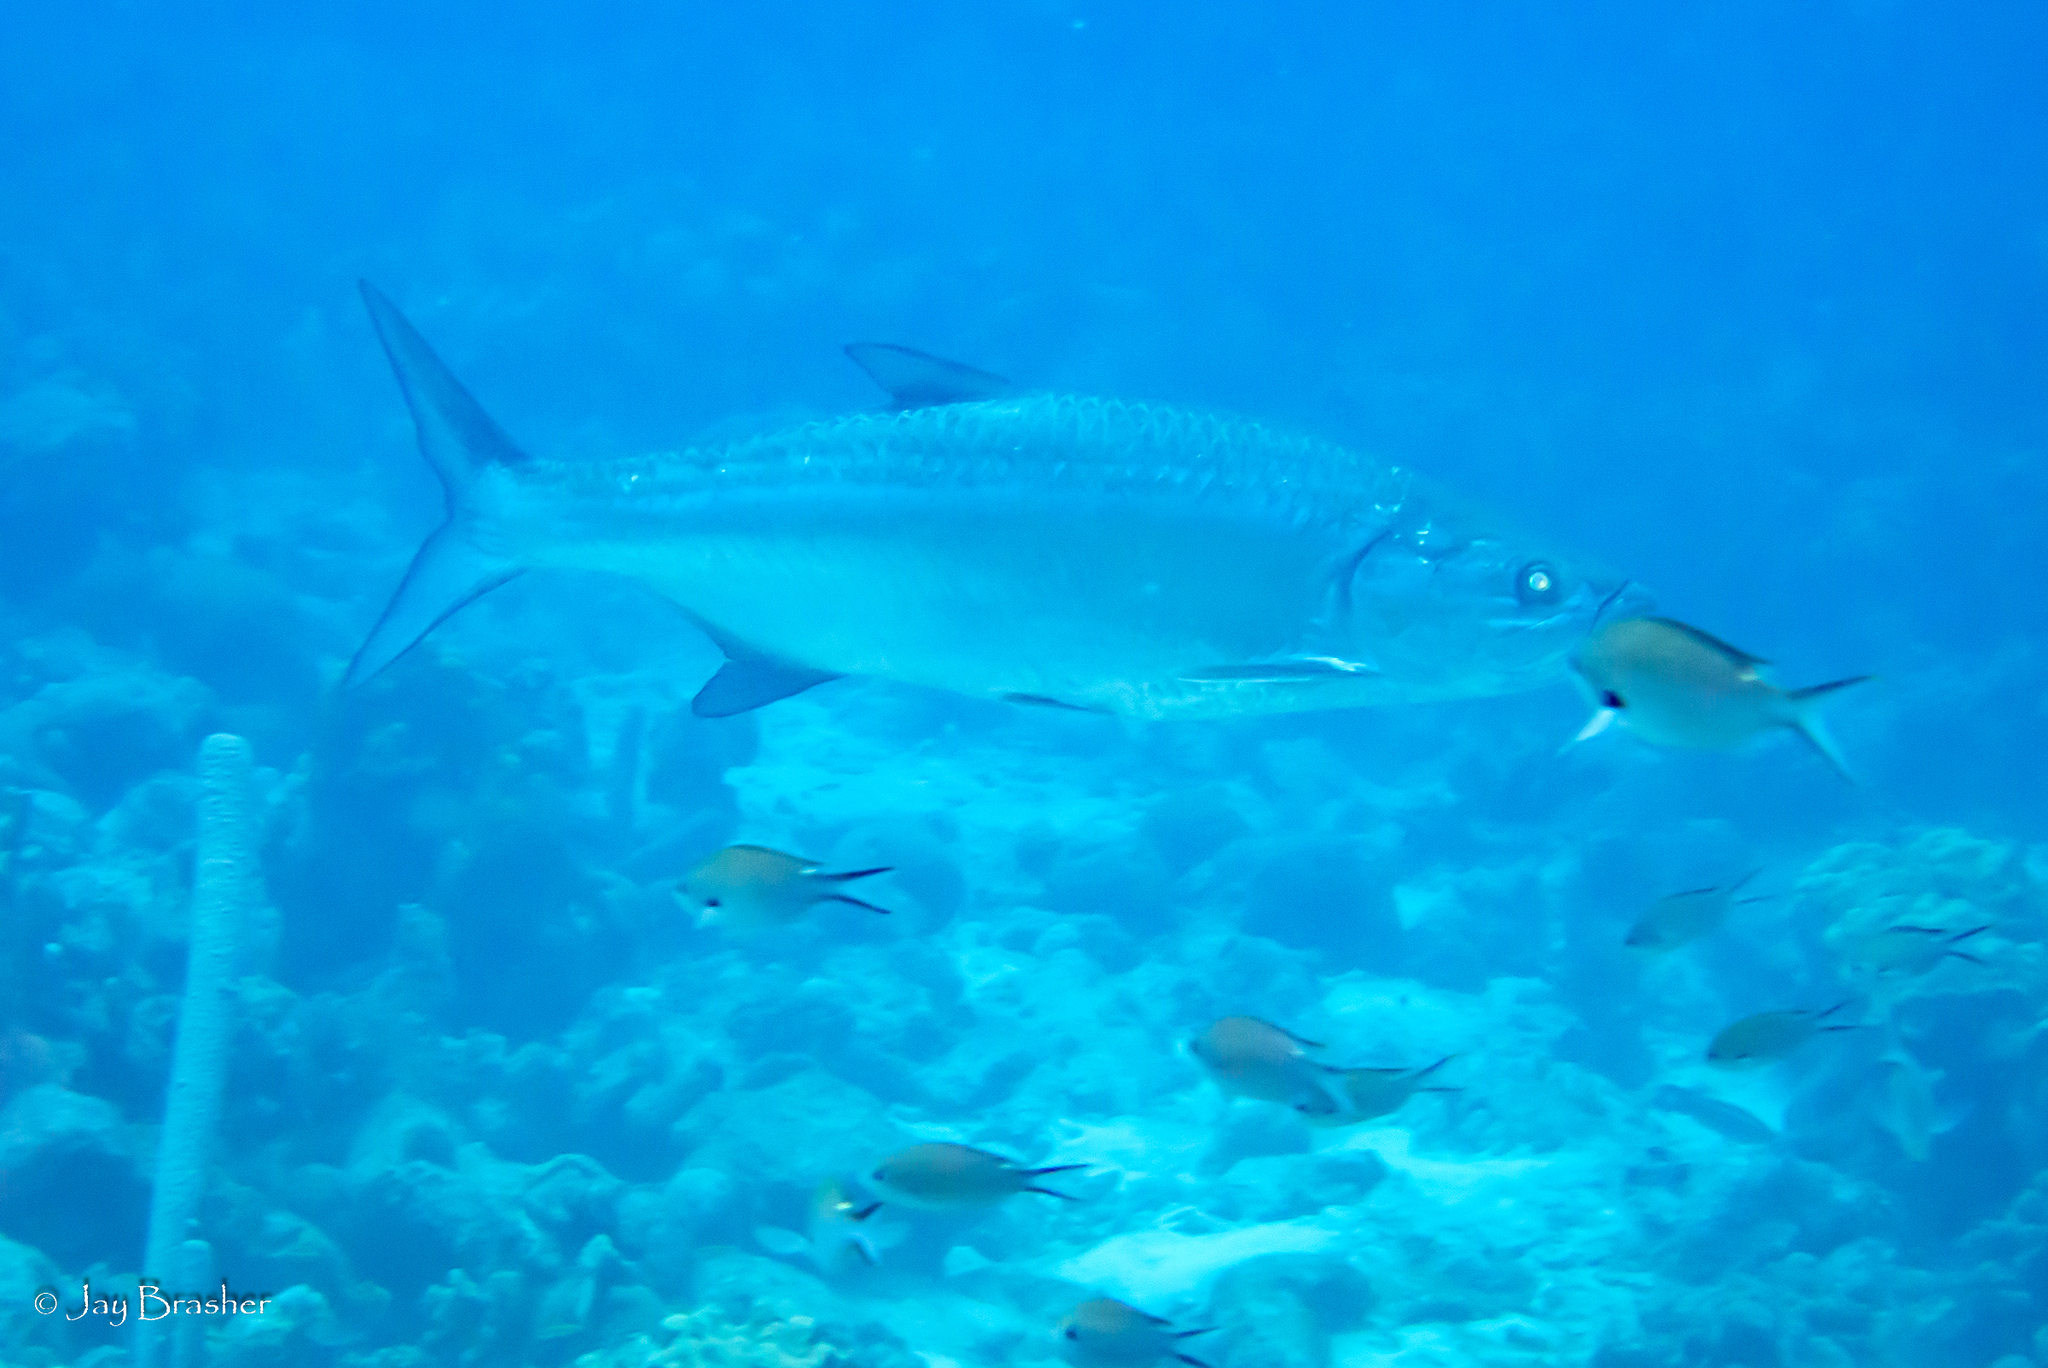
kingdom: Animalia
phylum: Chordata
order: Perciformes
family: Pomacentridae
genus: Chromis
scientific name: Chromis multilineata
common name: Brown chromis
